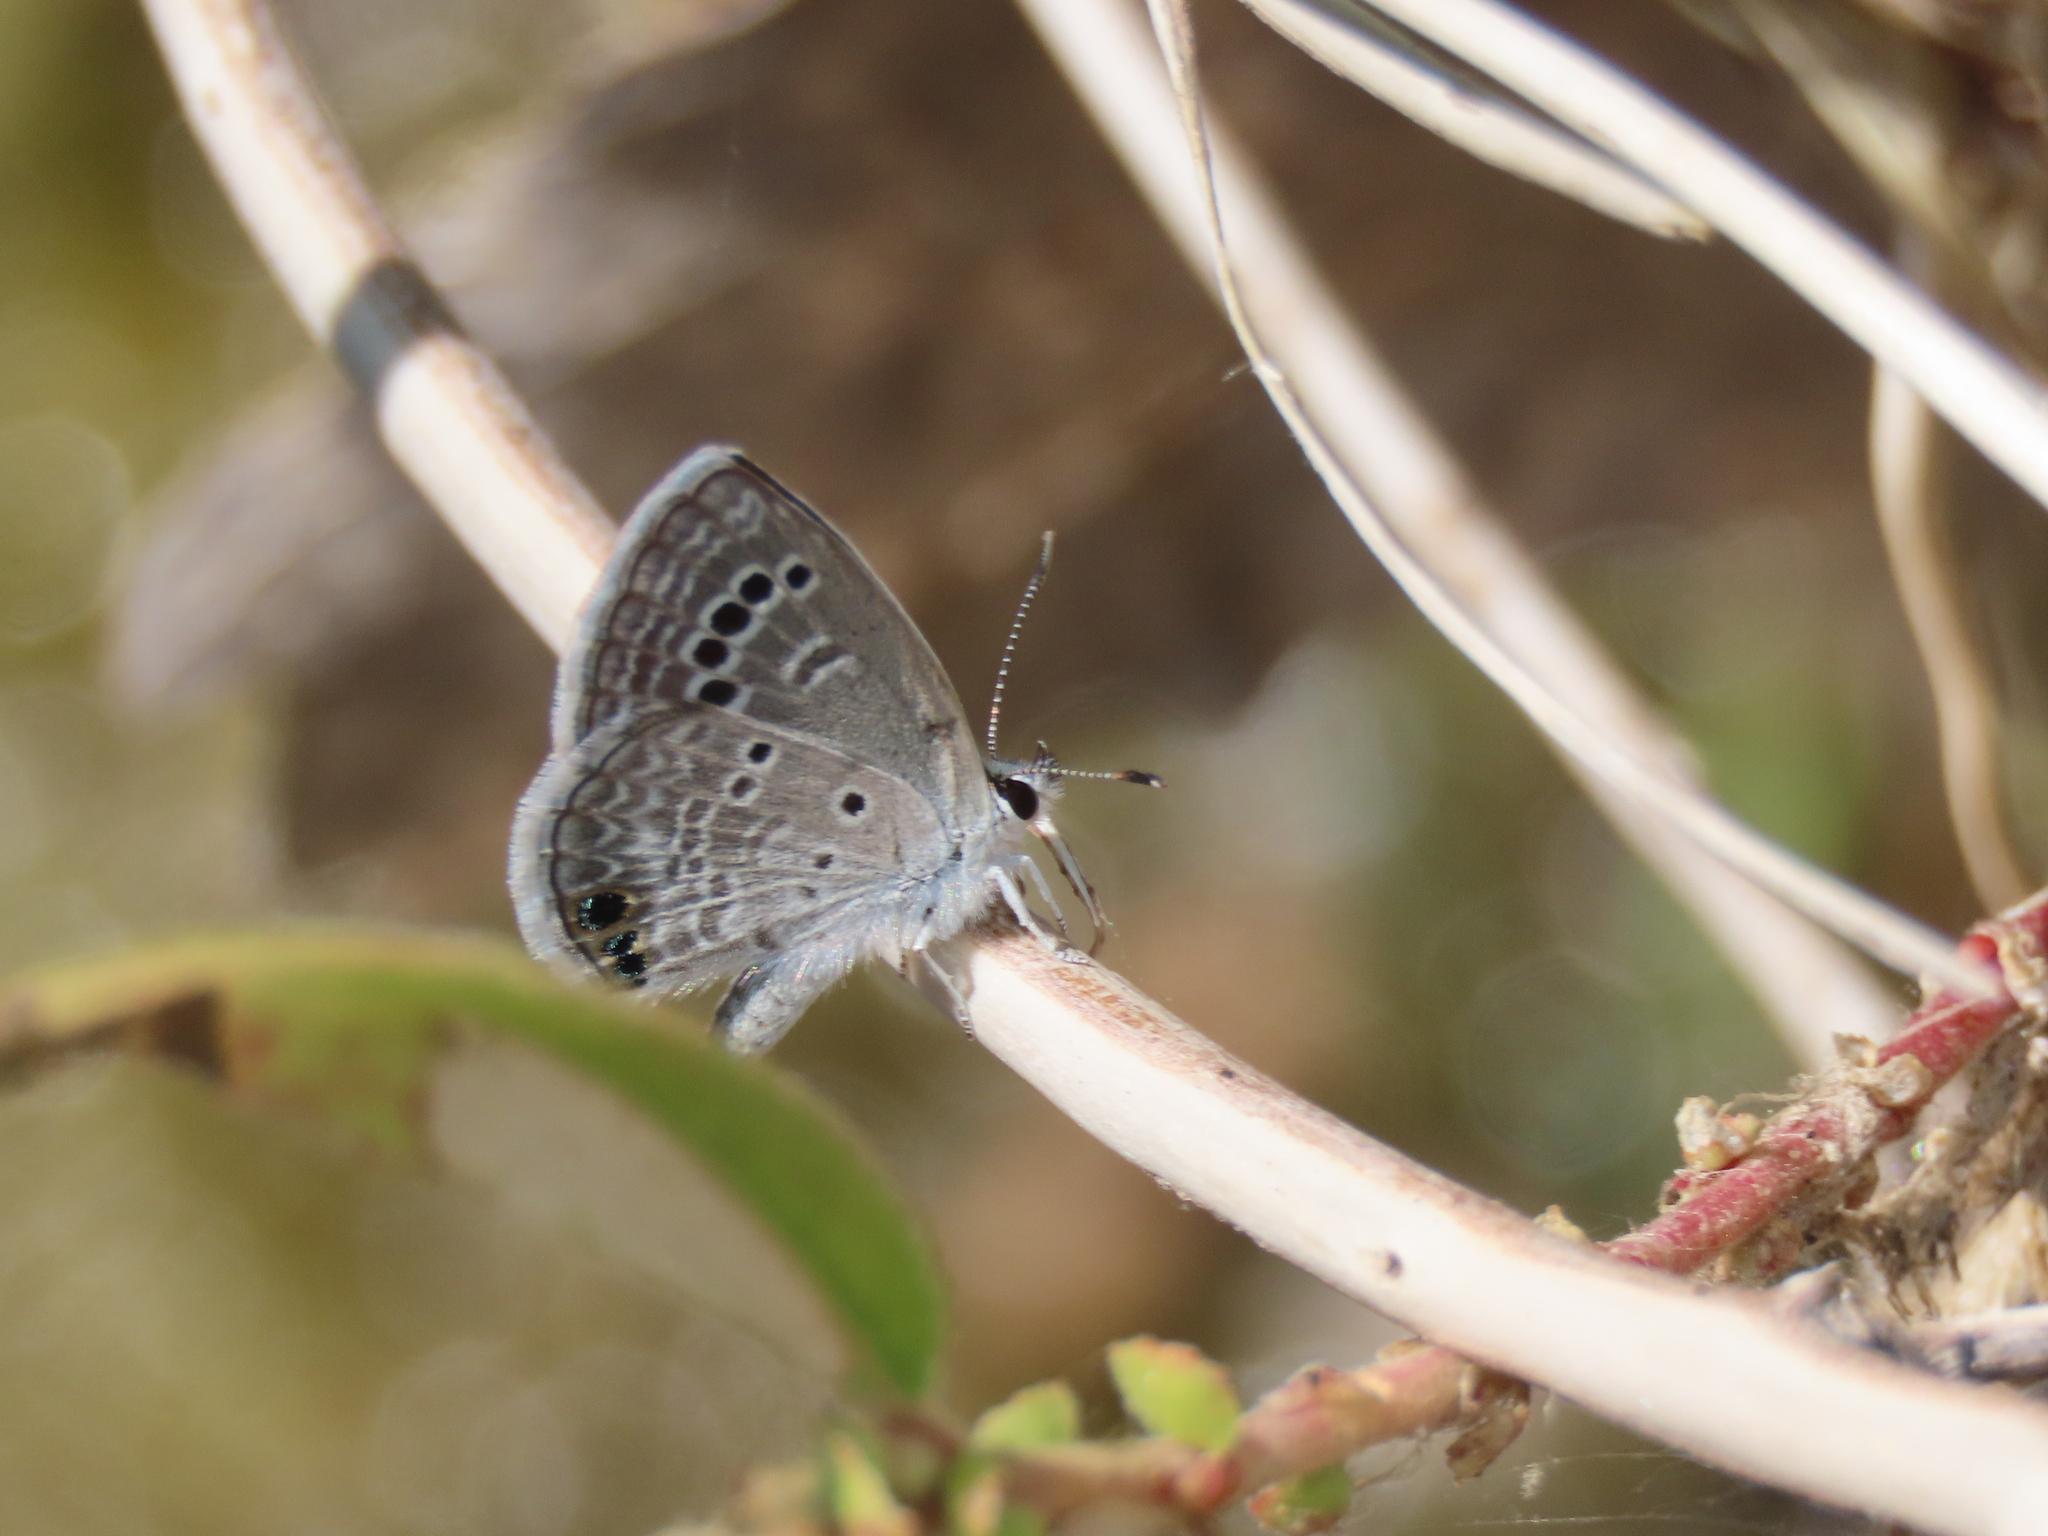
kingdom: Animalia
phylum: Arthropoda
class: Insecta
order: Lepidoptera
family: Lycaenidae
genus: Echinargus
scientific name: Echinargus isola
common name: Reakirt's blue
